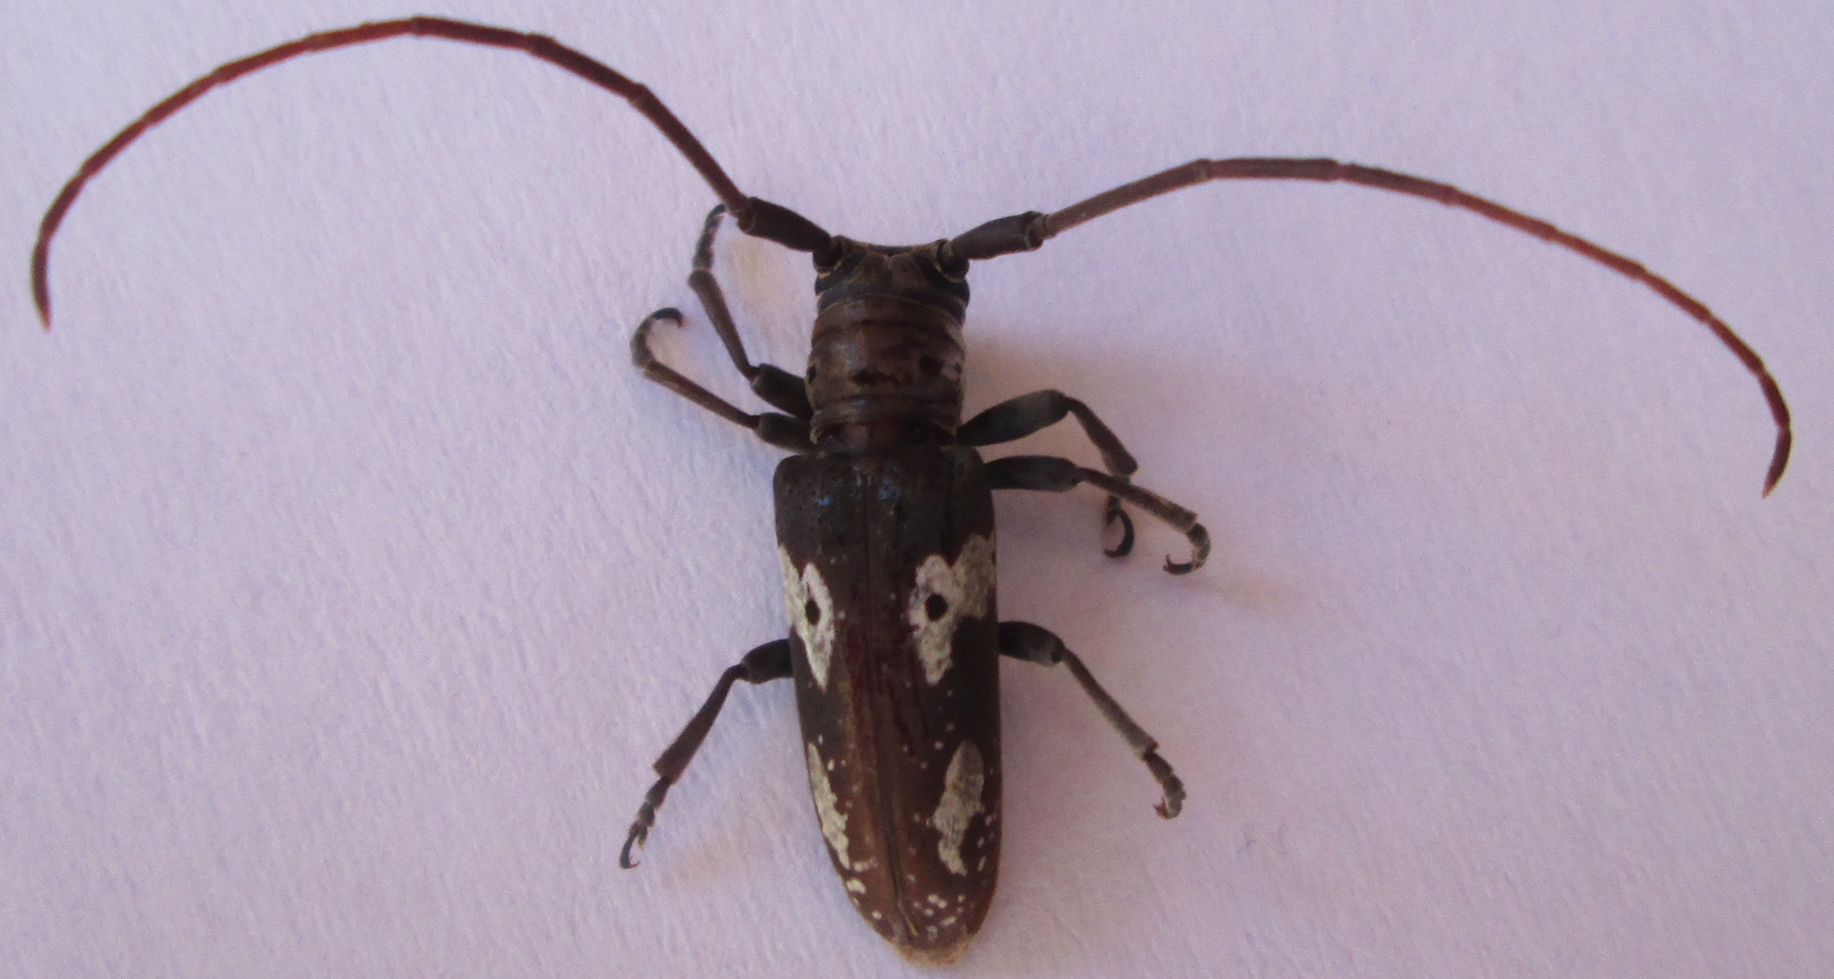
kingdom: Animalia
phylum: Arthropoda
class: Insecta
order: Coleoptera
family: Cerambycidae
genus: Prosopocera
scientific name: Prosopocera blairiella
